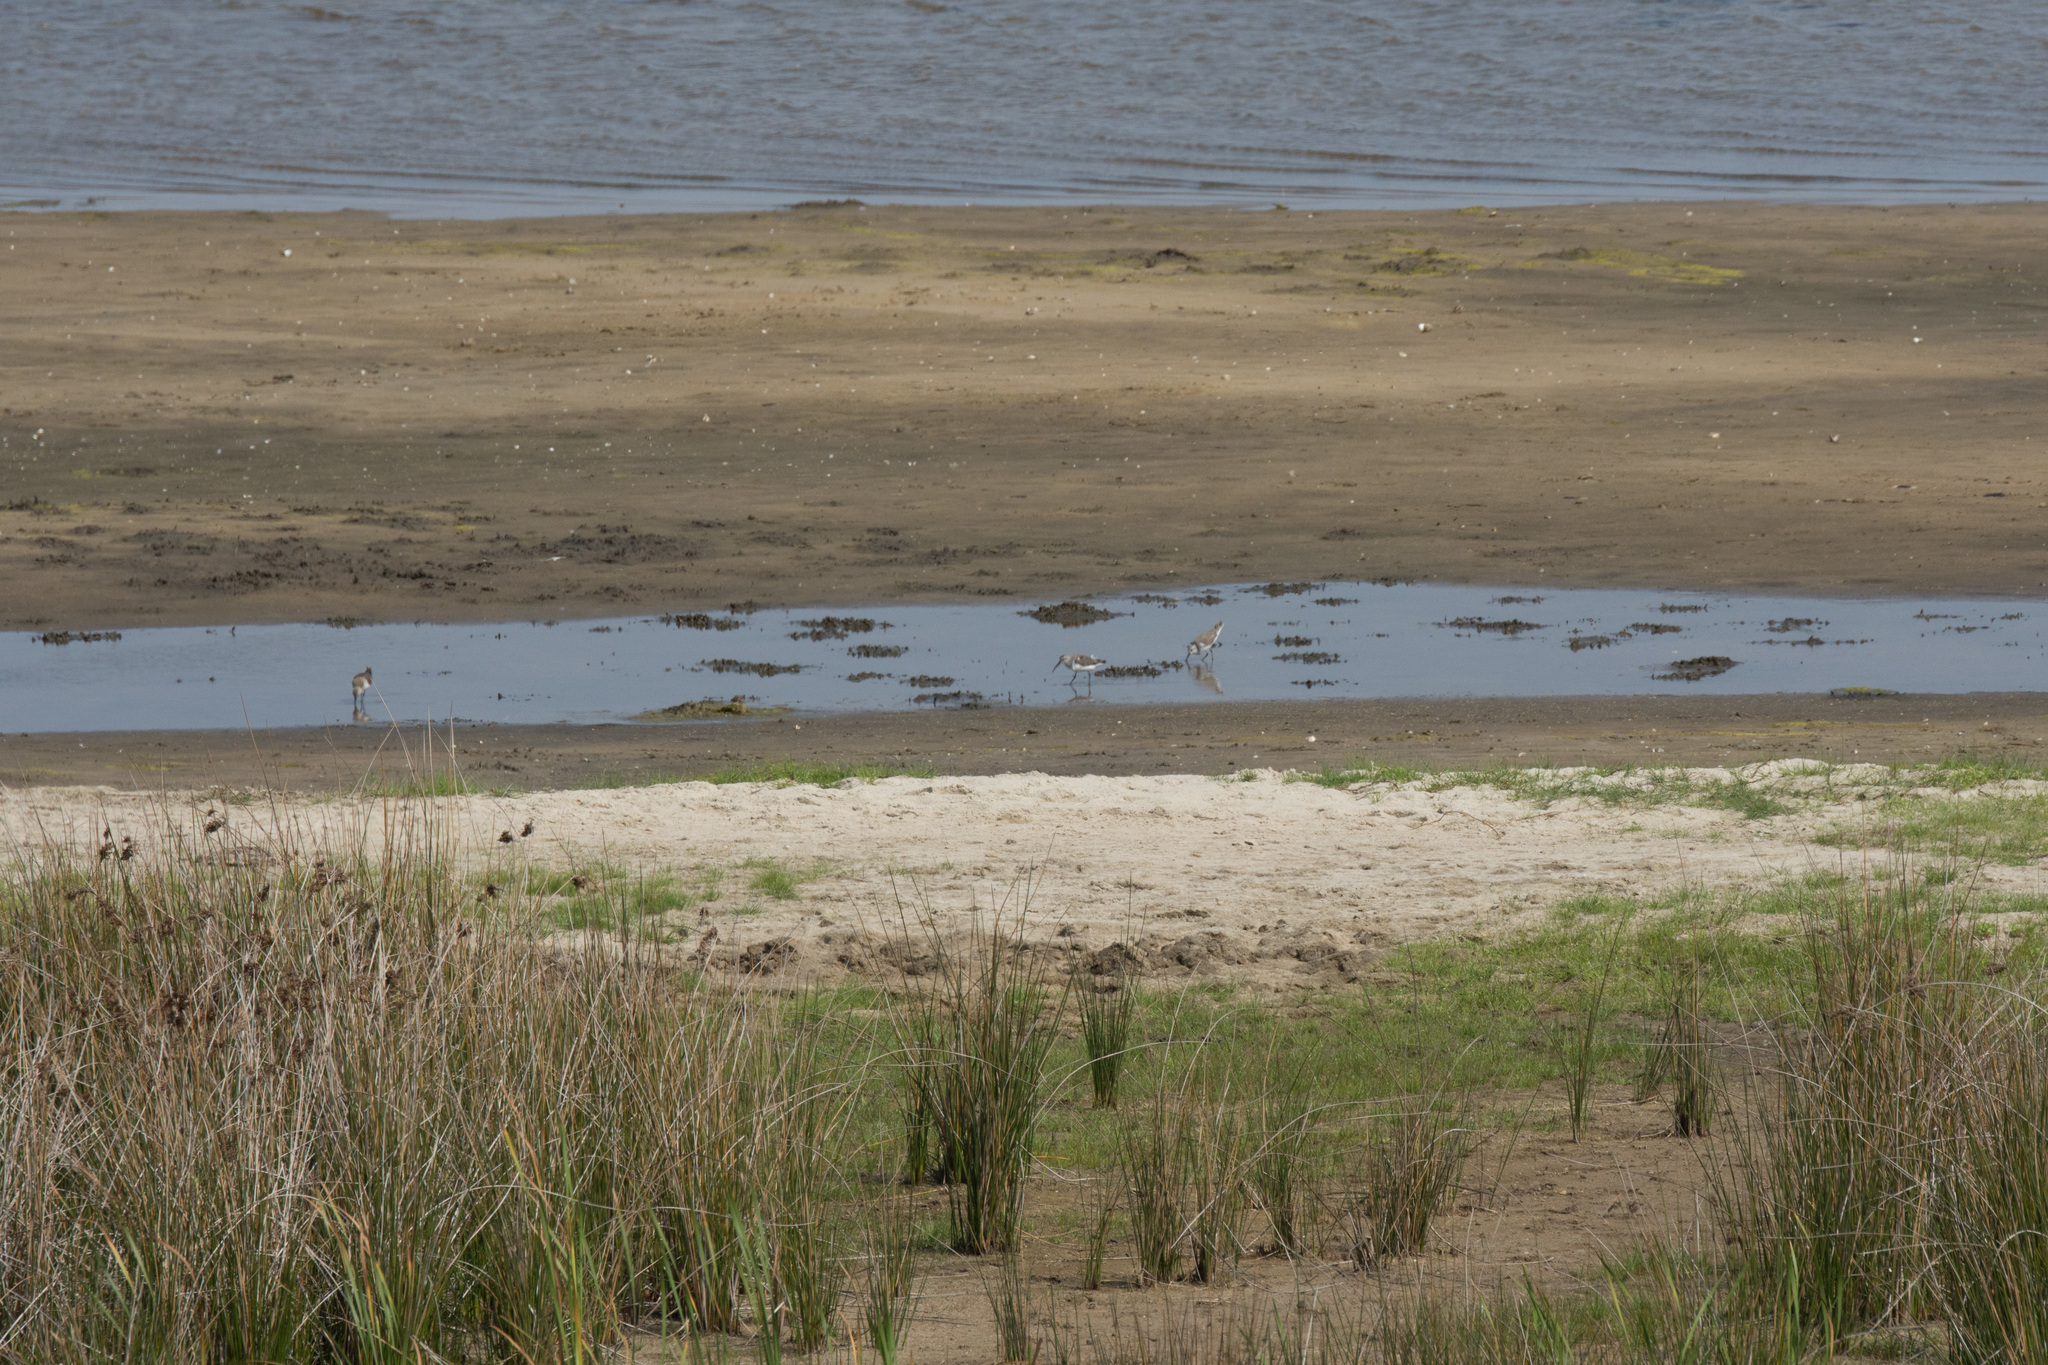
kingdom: Animalia
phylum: Chordata
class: Aves
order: Charadriiformes
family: Scolopacidae
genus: Calidris
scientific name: Calidris ferruginea
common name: Curlew sandpiper
